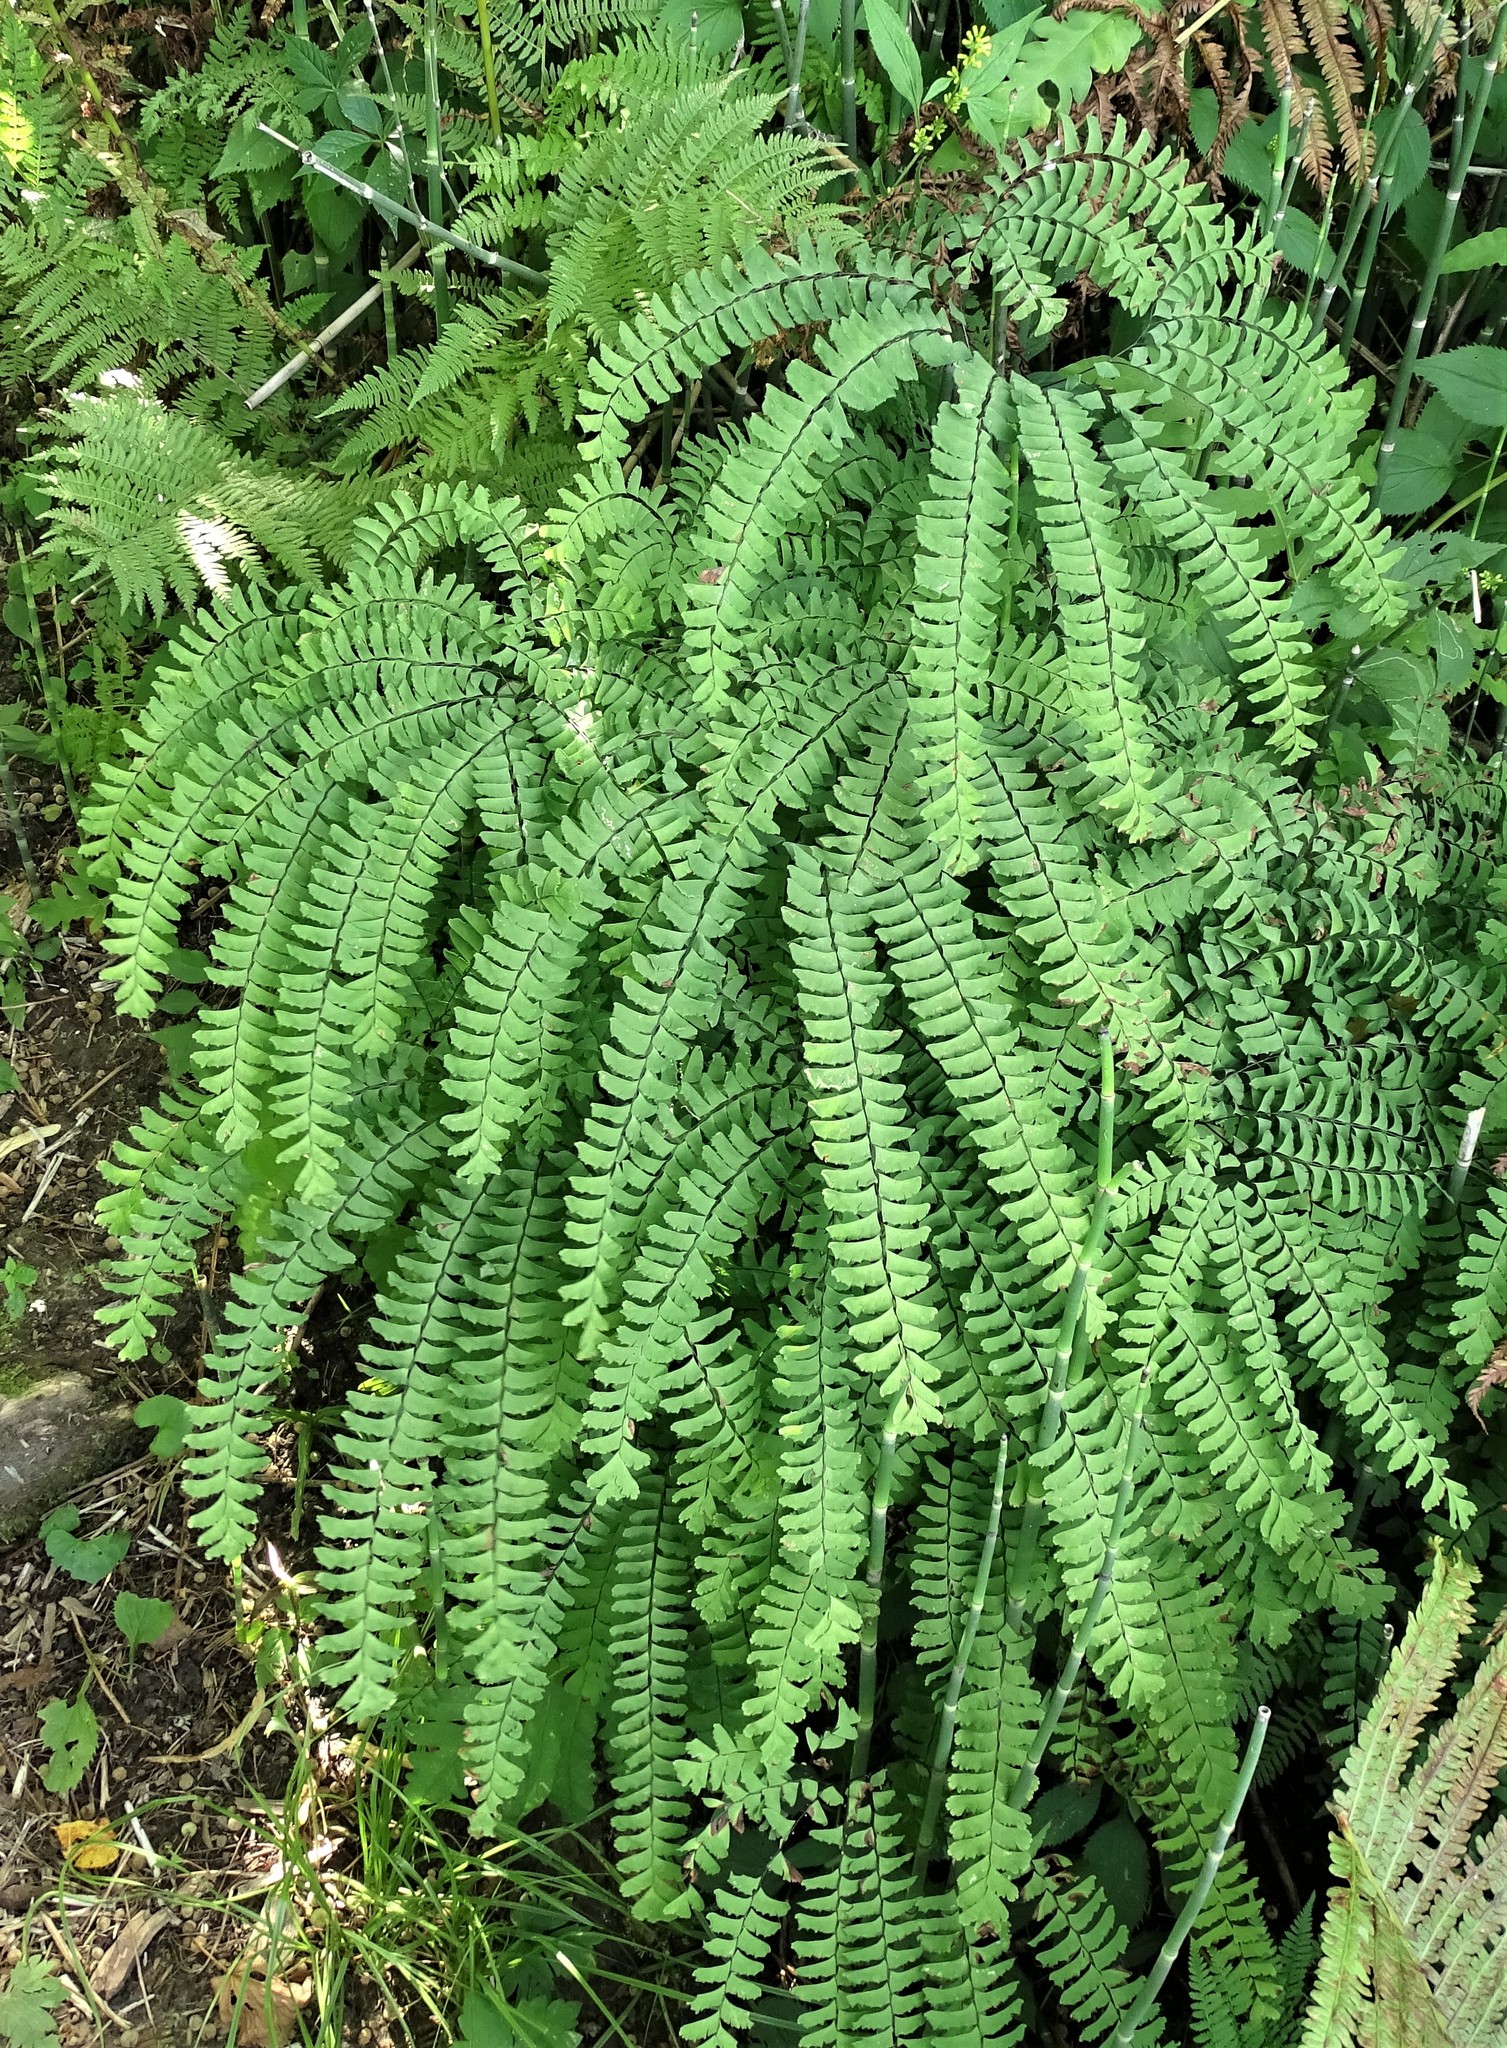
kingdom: Plantae
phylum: Tracheophyta
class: Polypodiopsida
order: Polypodiales
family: Pteridaceae
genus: Adiantum
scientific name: Adiantum pedatum
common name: Five-finger fern
